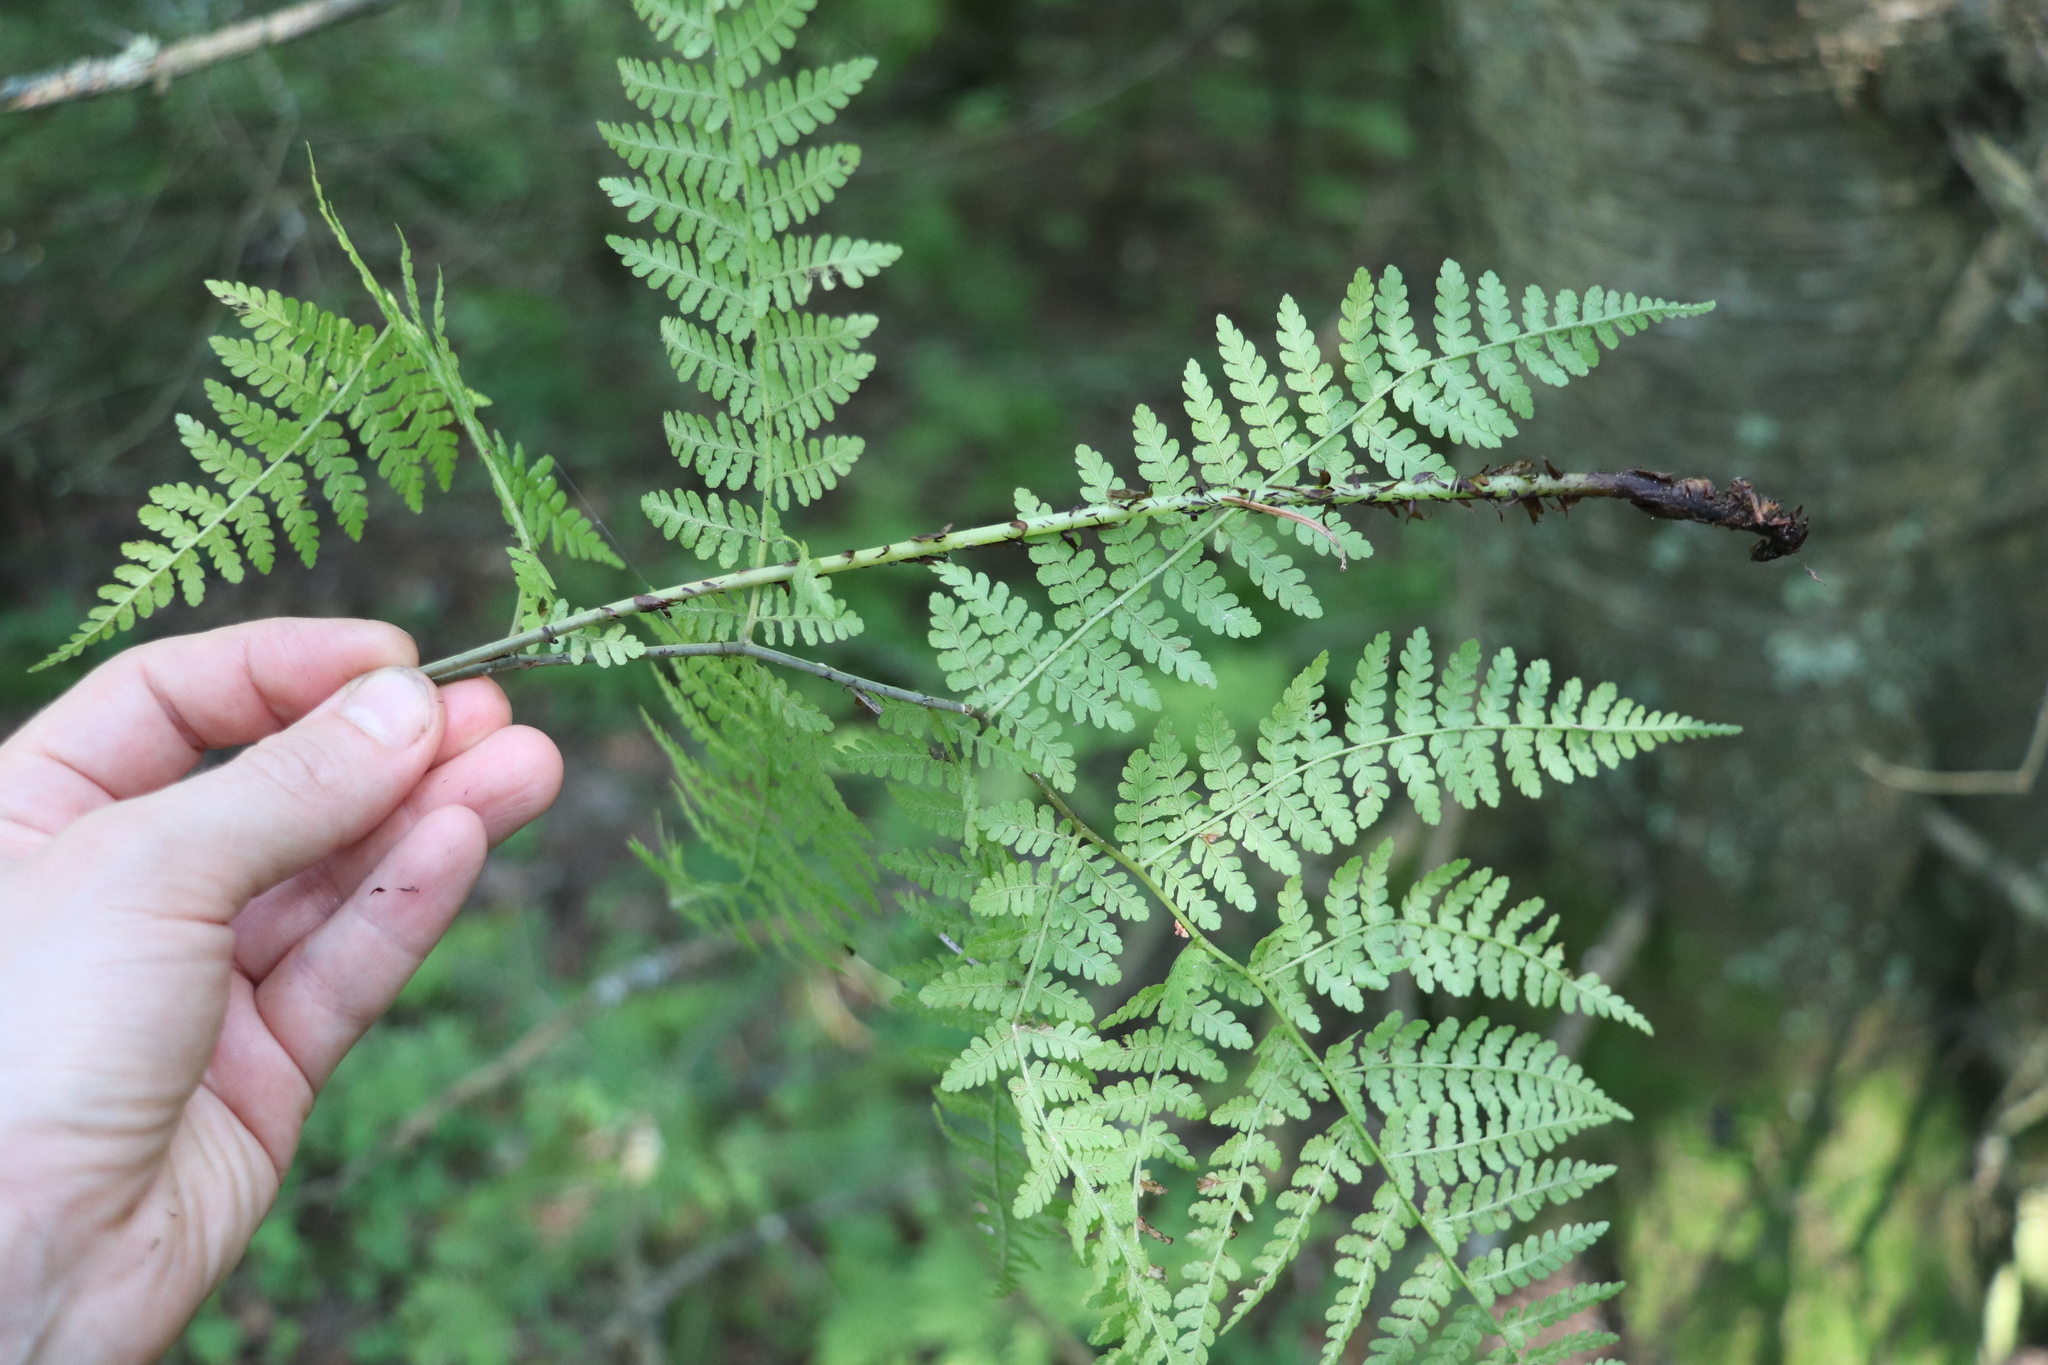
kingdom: Plantae
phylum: Tracheophyta
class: Polypodiopsida
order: Polypodiales
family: Athyriaceae
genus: Diplazium
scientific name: Diplazium sibiricum
